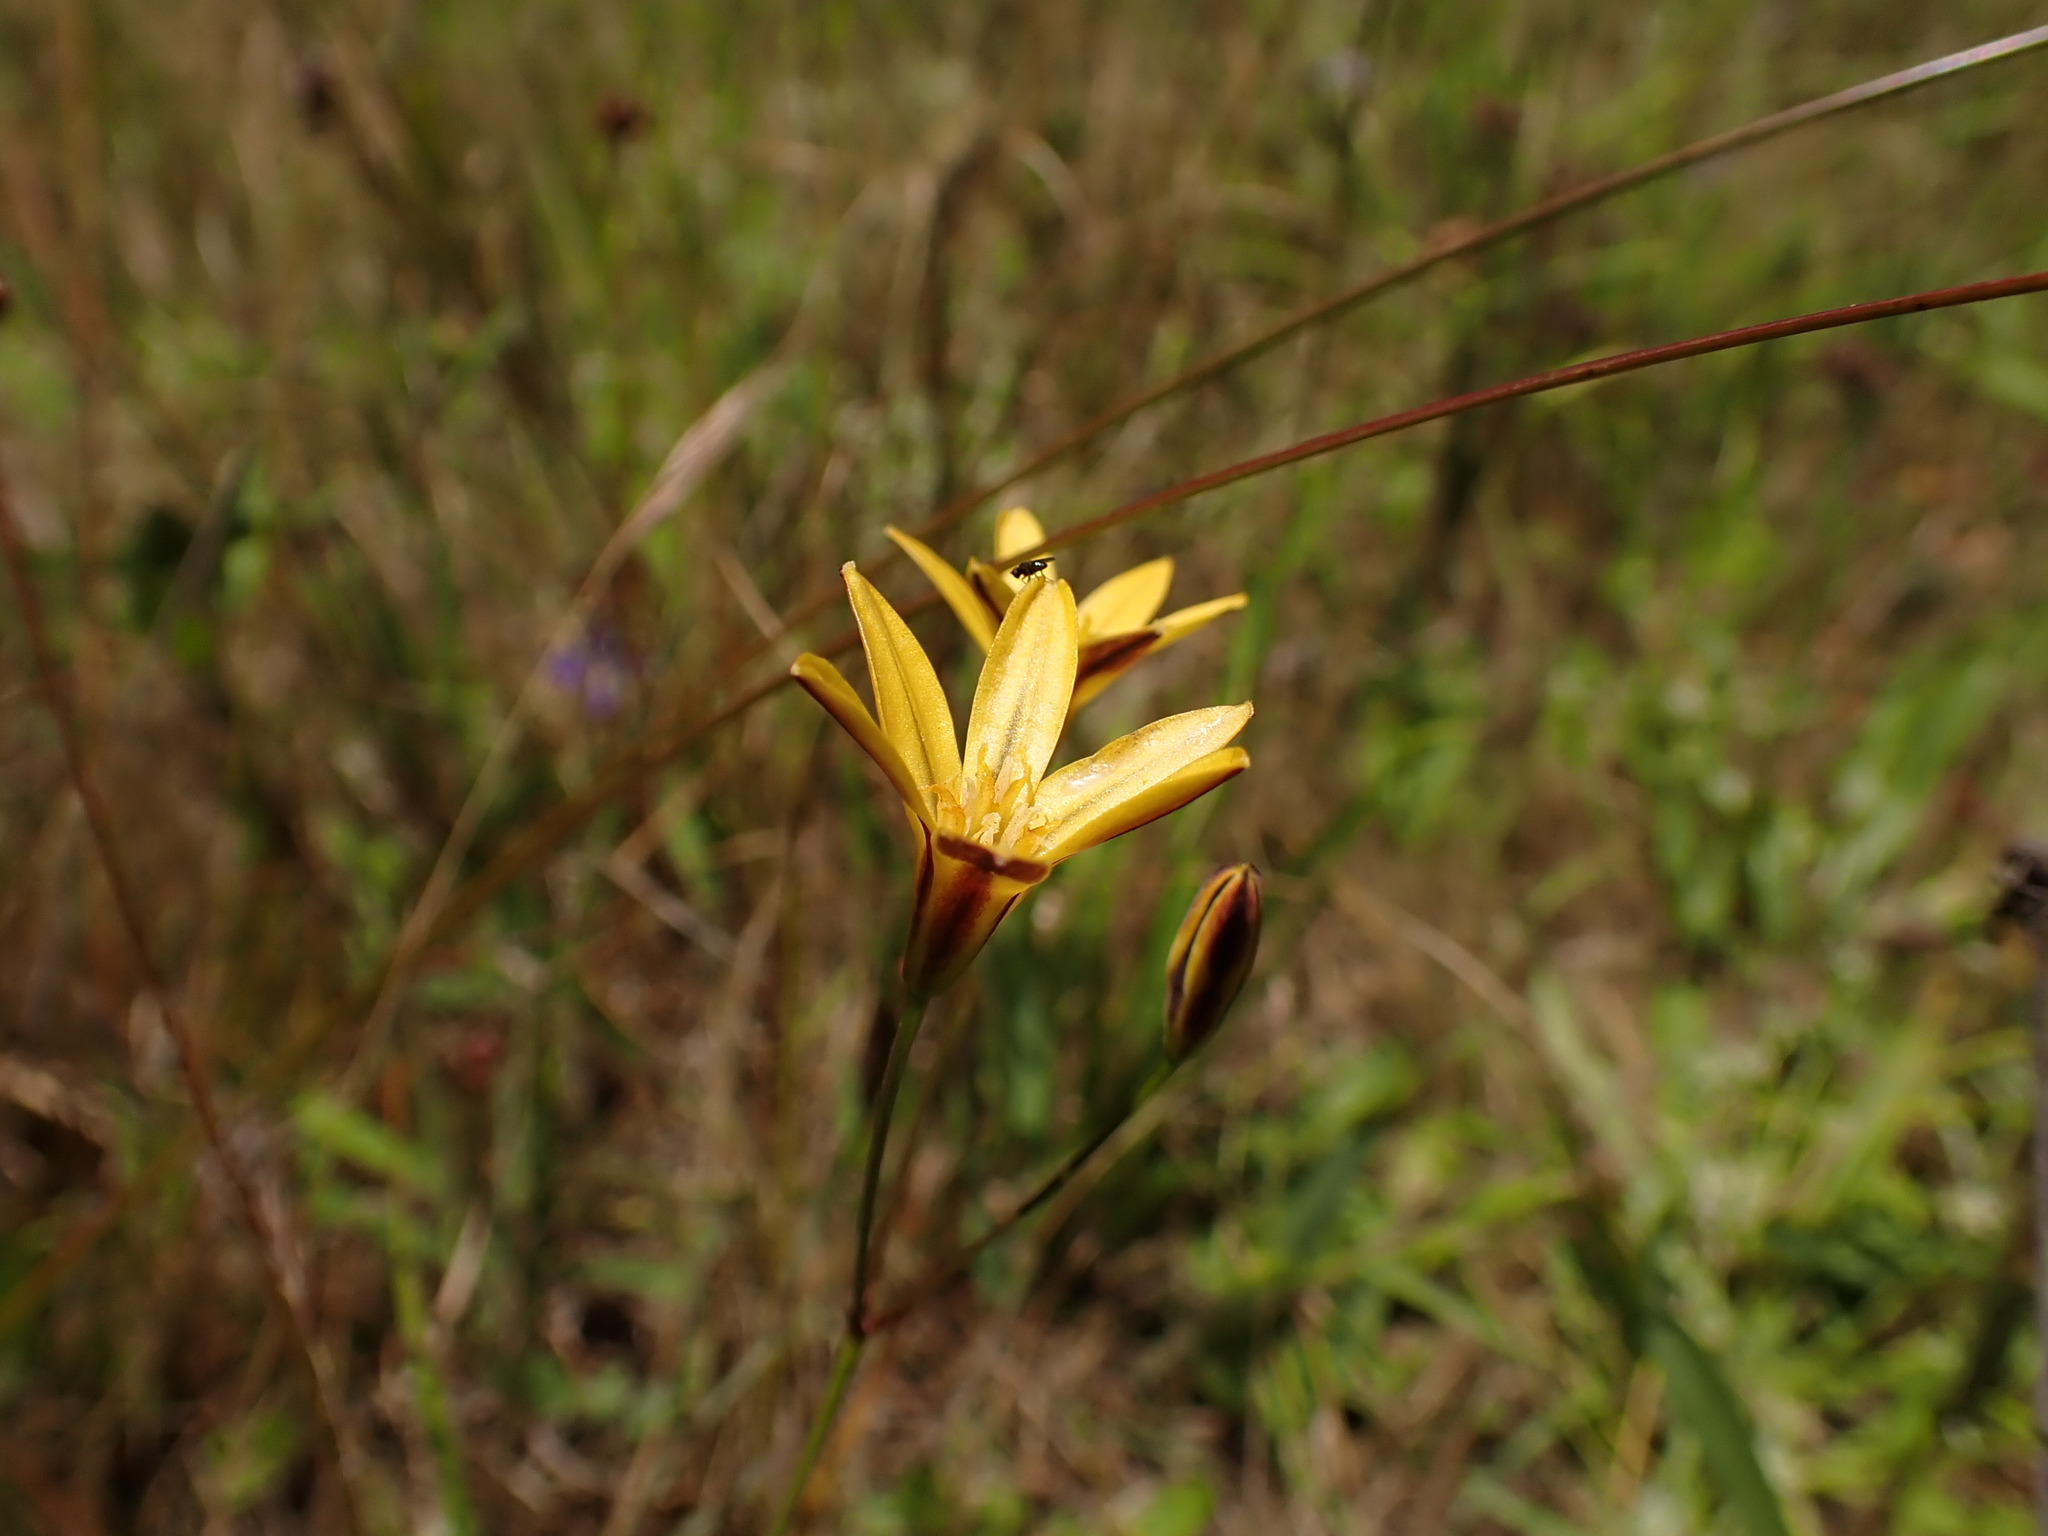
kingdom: Plantae
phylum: Tracheophyta
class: Liliopsida
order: Asparagales
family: Asparagaceae
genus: Triteleia
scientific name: Triteleia ixioides
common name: Yellow-brodiaea
